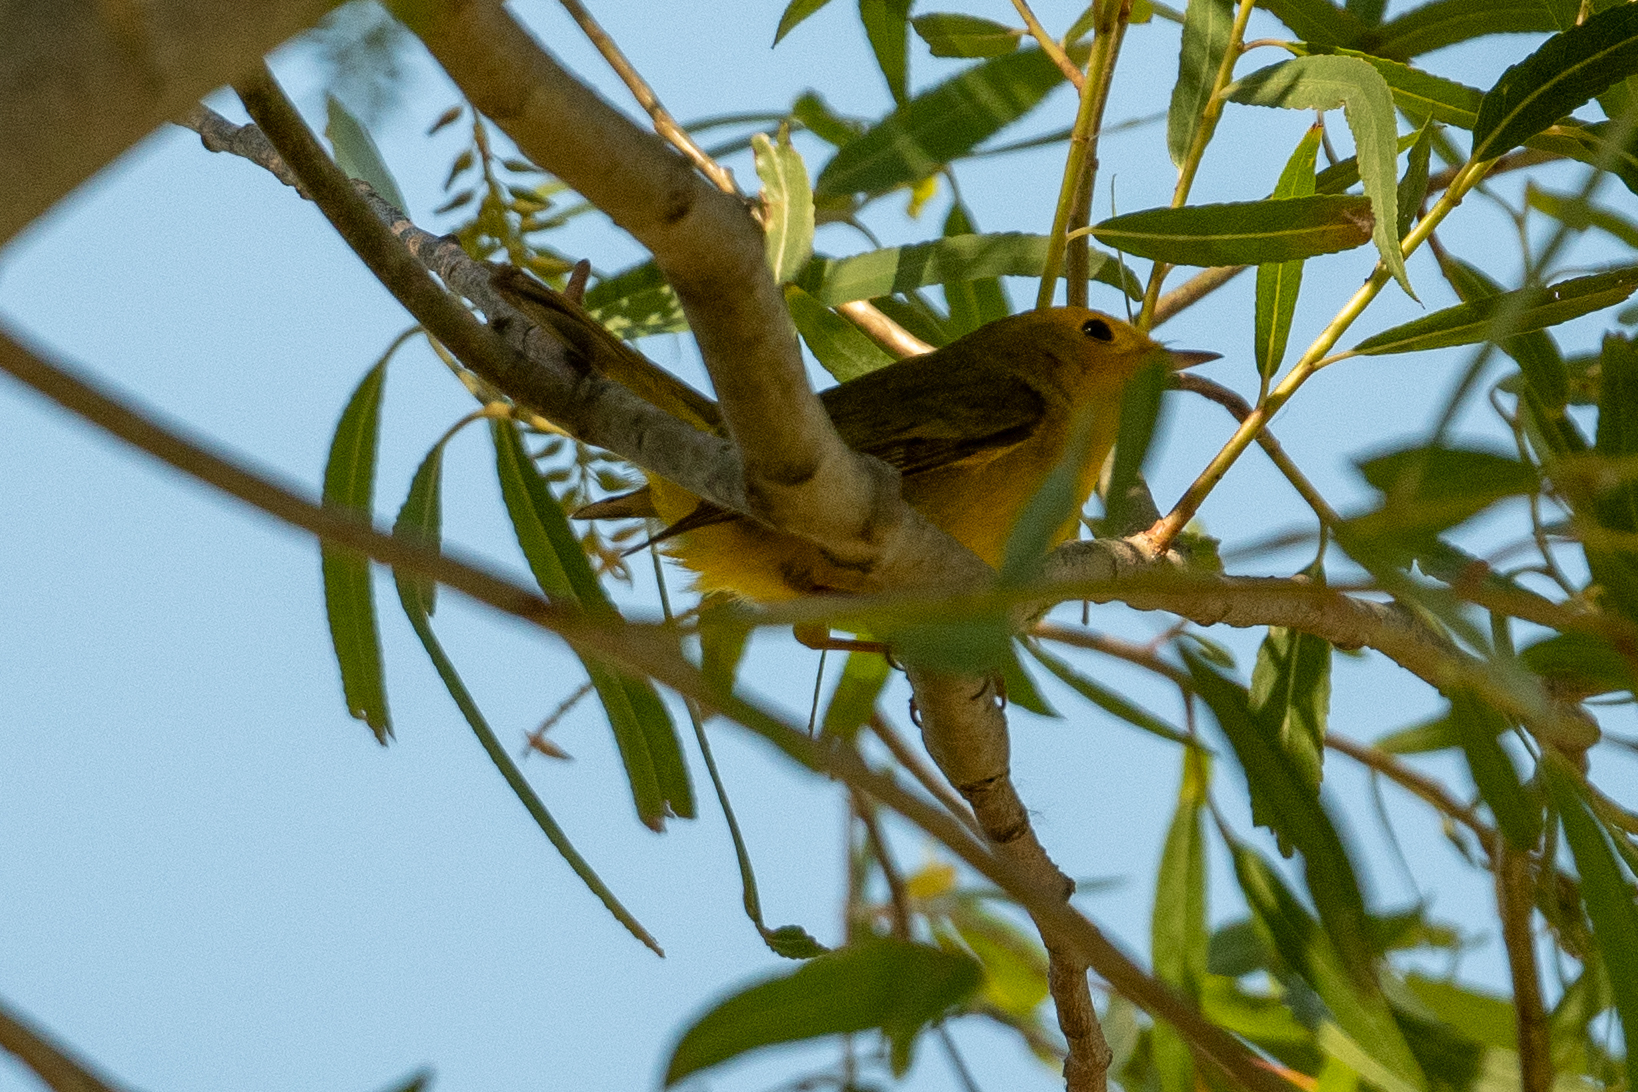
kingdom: Animalia
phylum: Chordata
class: Aves
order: Passeriformes
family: Parulidae
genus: Cardellina
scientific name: Cardellina pusilla
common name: Wilson's warbler
